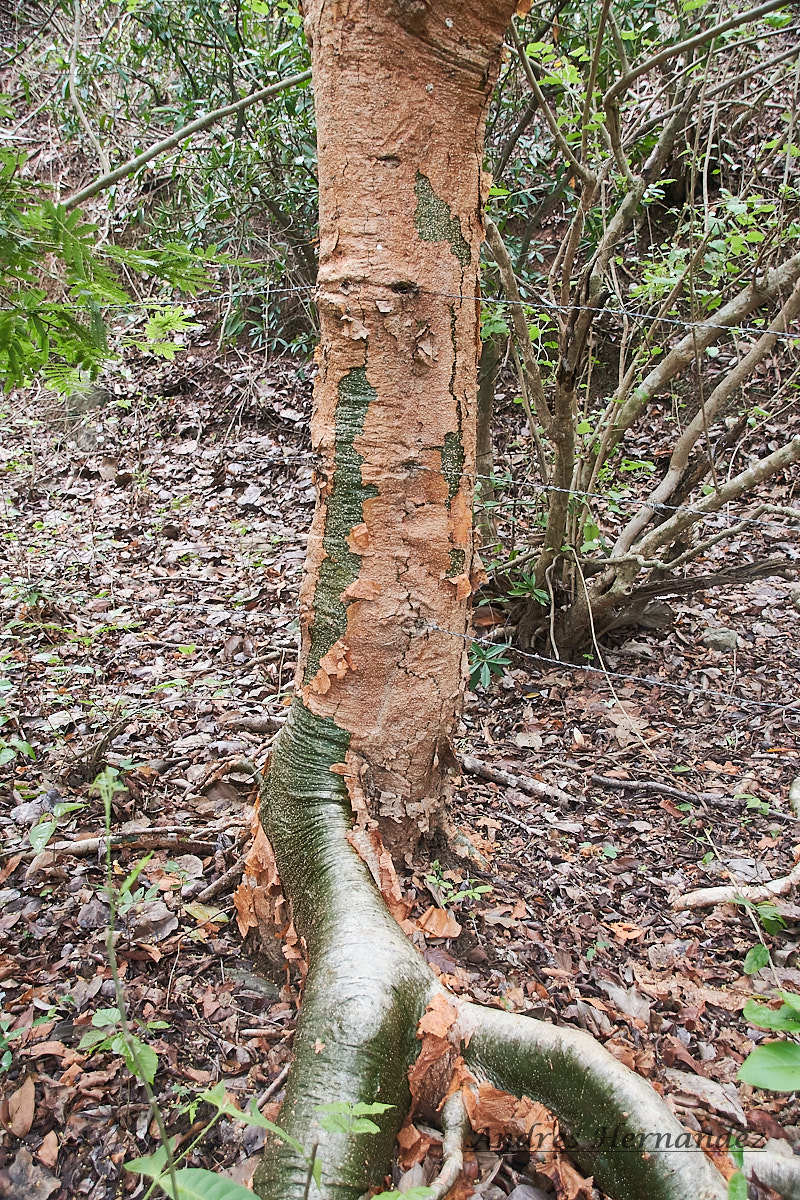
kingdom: Plantae
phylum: Tracheophyta
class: Magnoliopsida
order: Sapindales
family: Burseraceae
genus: Bursera
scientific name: Bursera simaruba
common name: Turpentine tree
